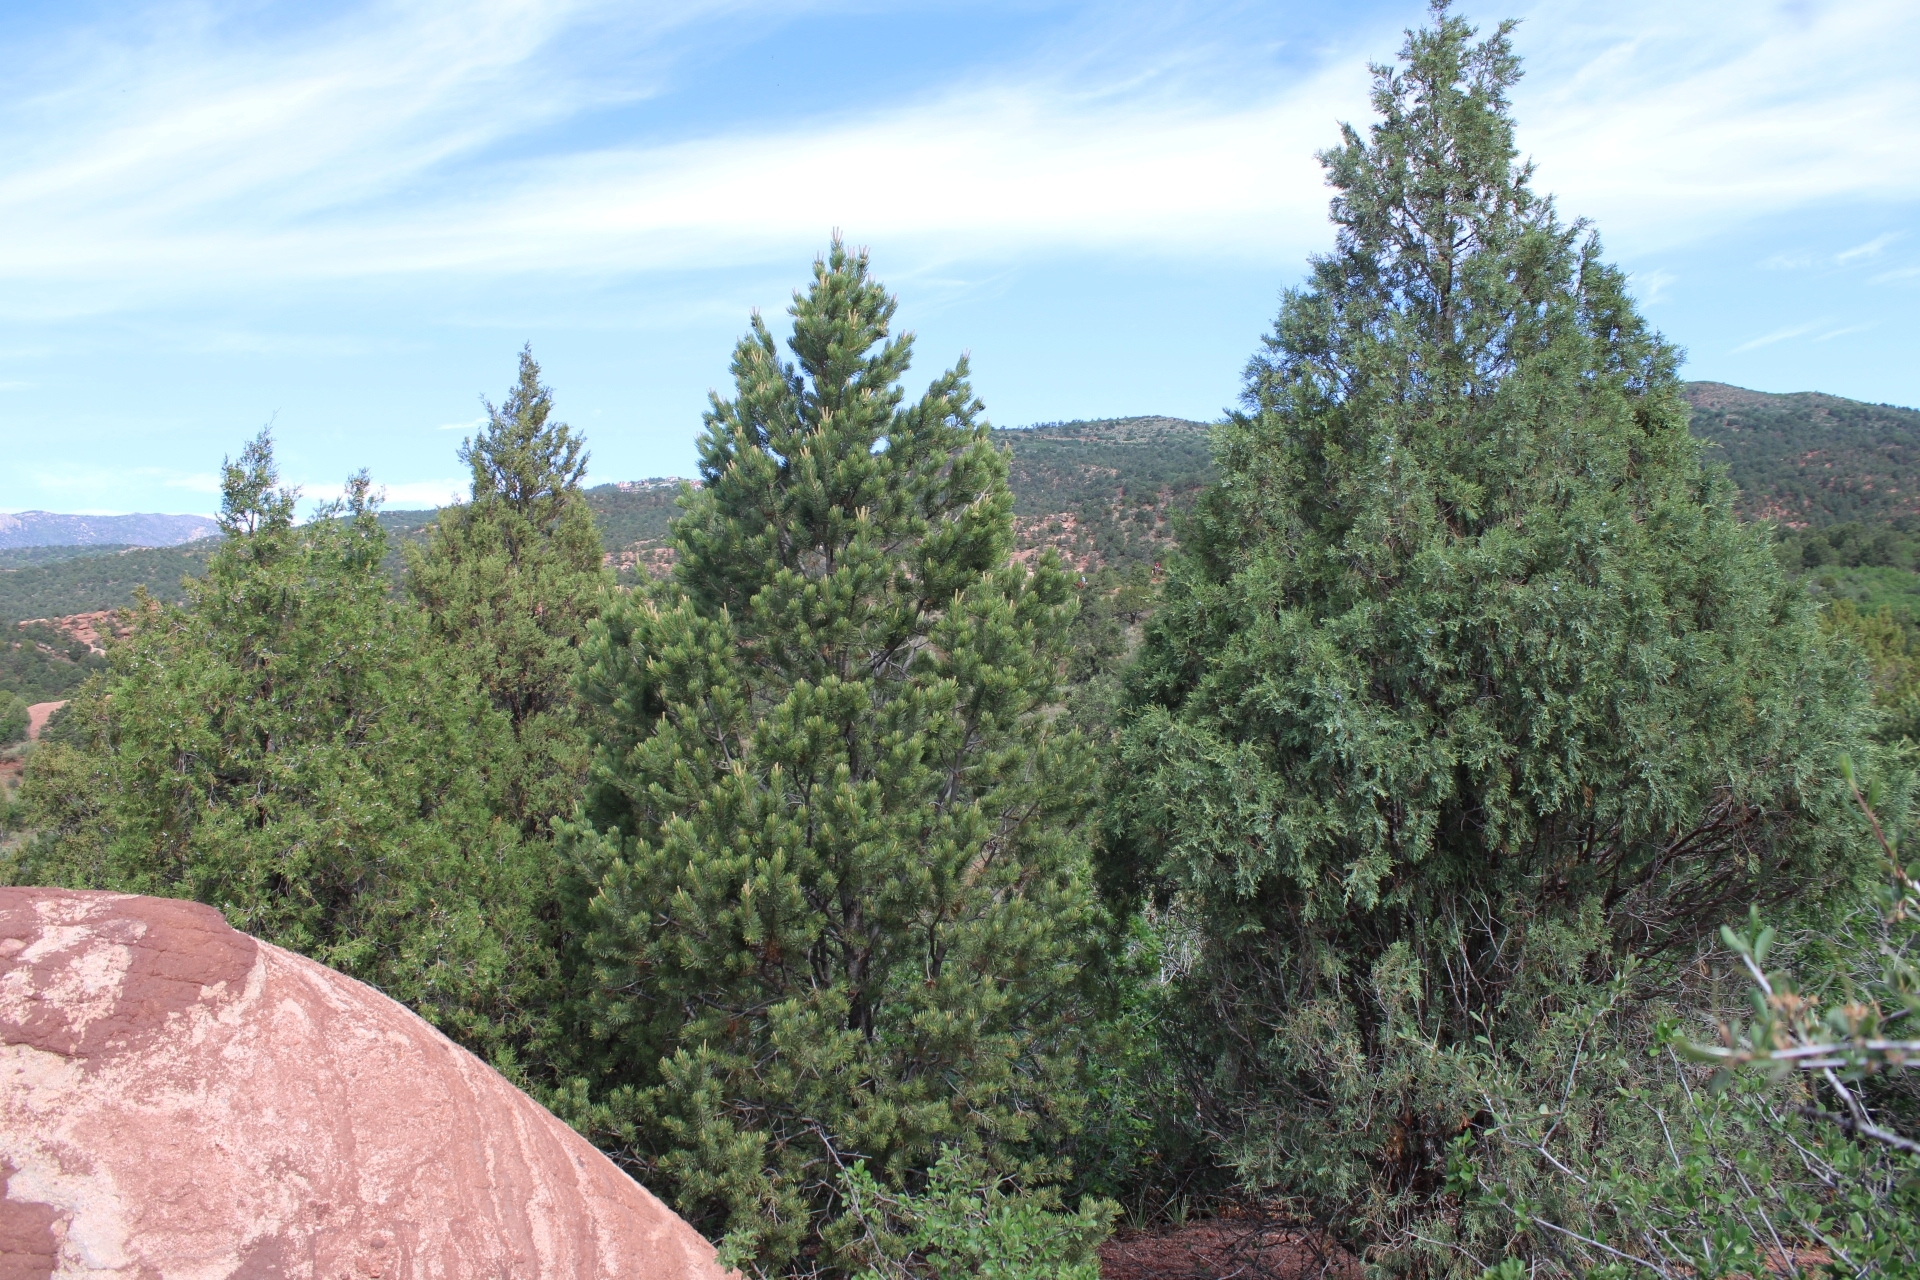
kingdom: Plantae
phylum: Tracheophyta
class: Pinopsida
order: Pinales
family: Pinaceae
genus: Pinus
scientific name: Pinus edulis
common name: Colorado pinyon
